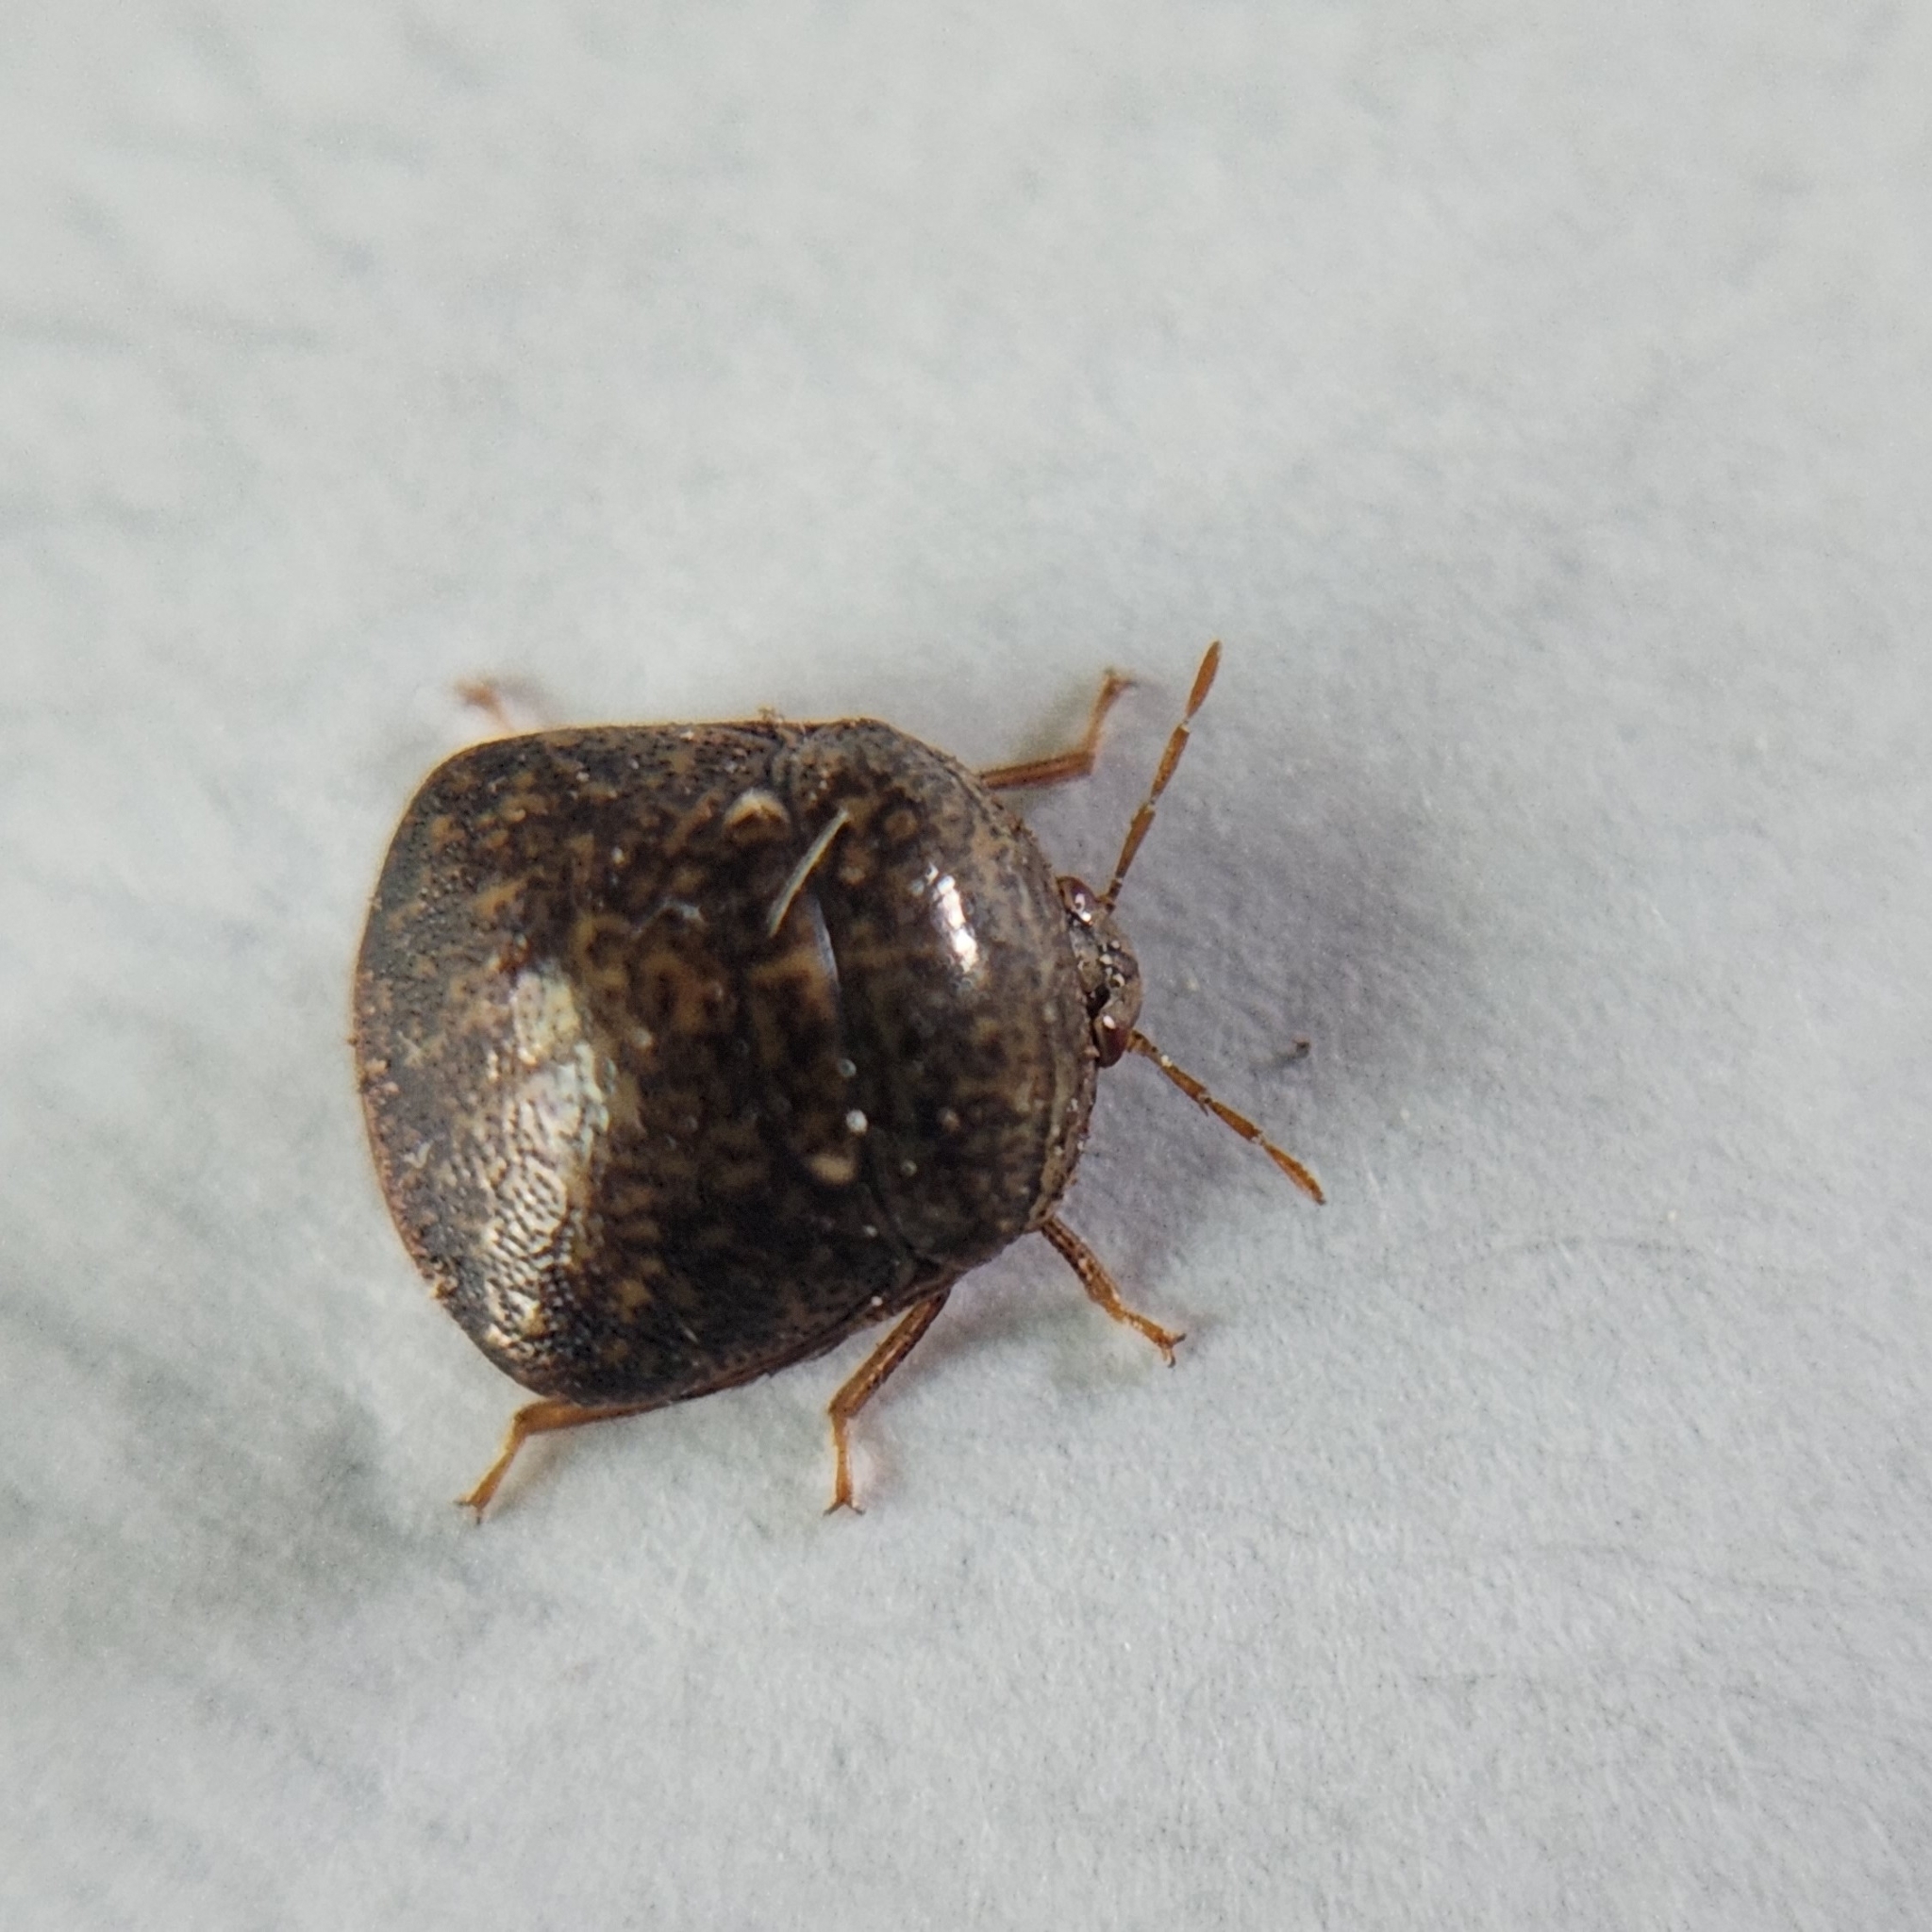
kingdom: Animalia
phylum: Arthropoda
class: Insecta
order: Hemiptera
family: Plataspidae
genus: Megacopta
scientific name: Megacopta cribraria
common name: Bean plataspid
